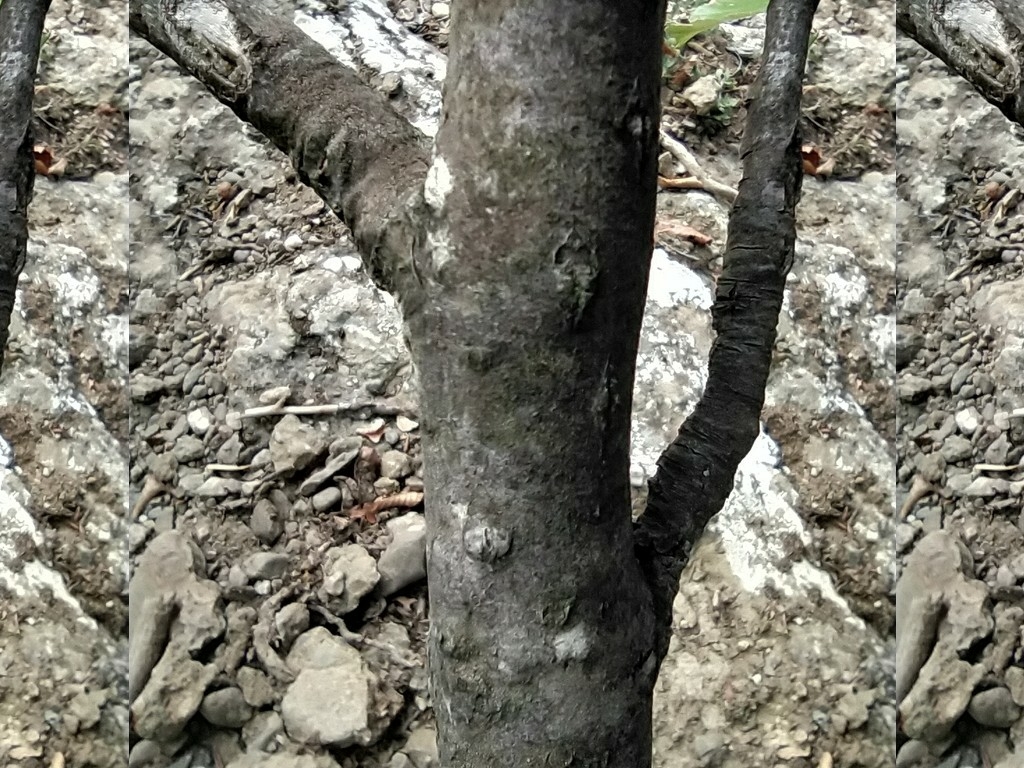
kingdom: Plantae
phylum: Tracheophyta
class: Magnoliopsida
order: Rosales
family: Rosaceae
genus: Aria
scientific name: Aria graeca
